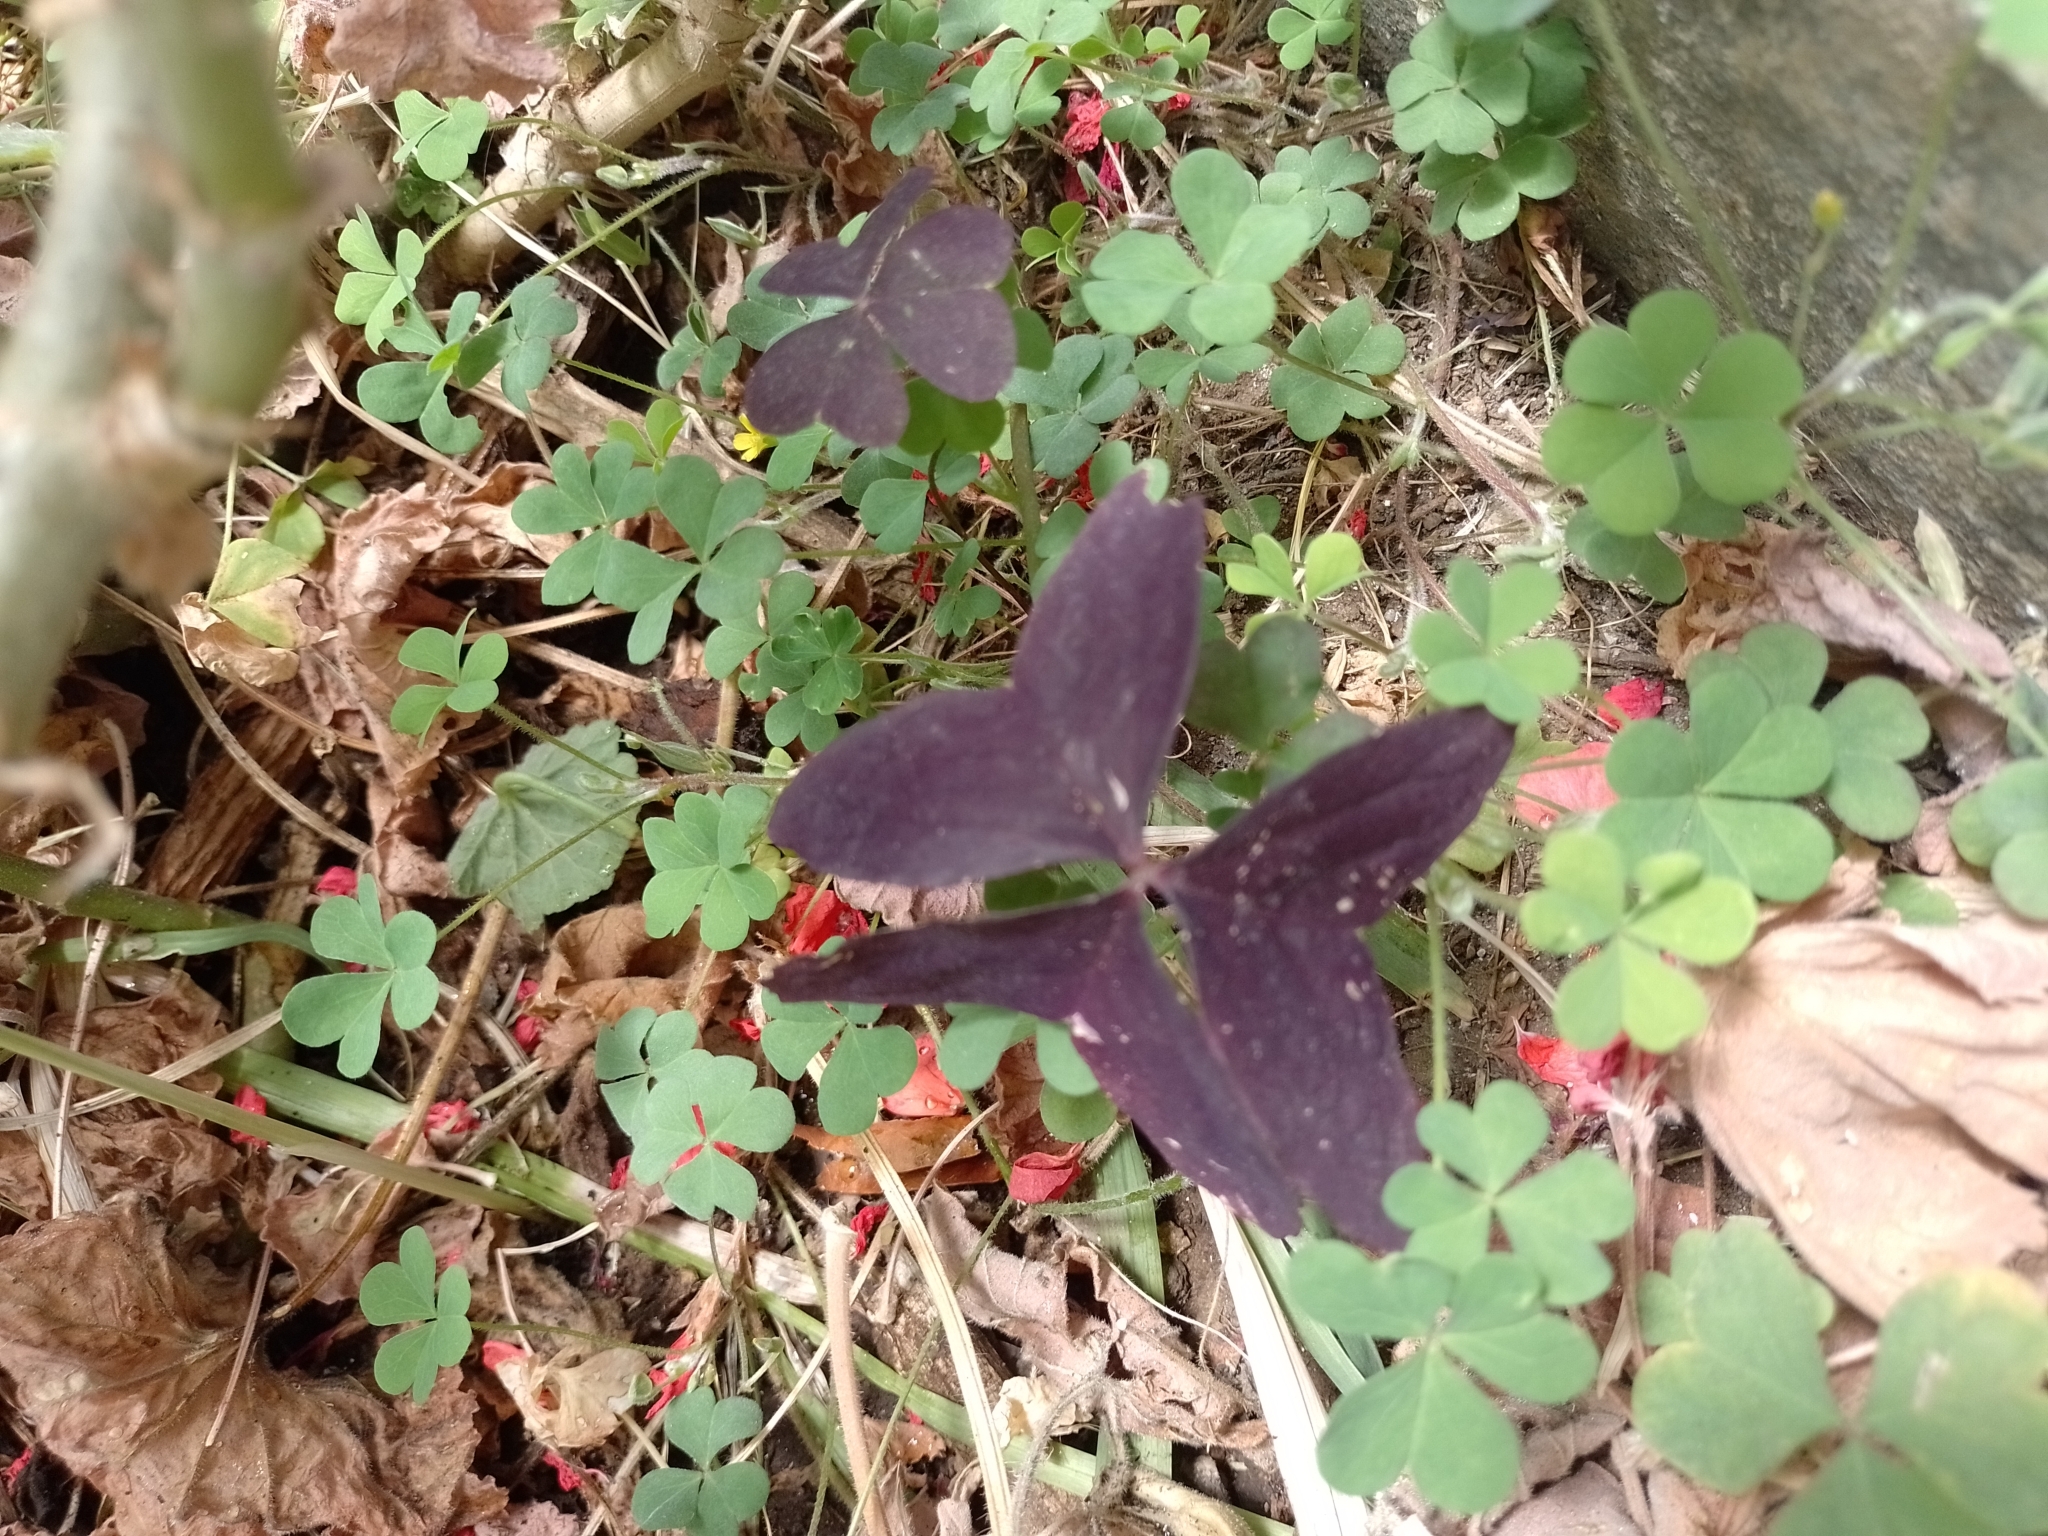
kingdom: Plantae
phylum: Tracheophyta
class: Magnoliopsida
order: Oxalidales
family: Oxalidaceae
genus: Oxalis
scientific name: Oxalis triangularis
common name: Wood sorrel
